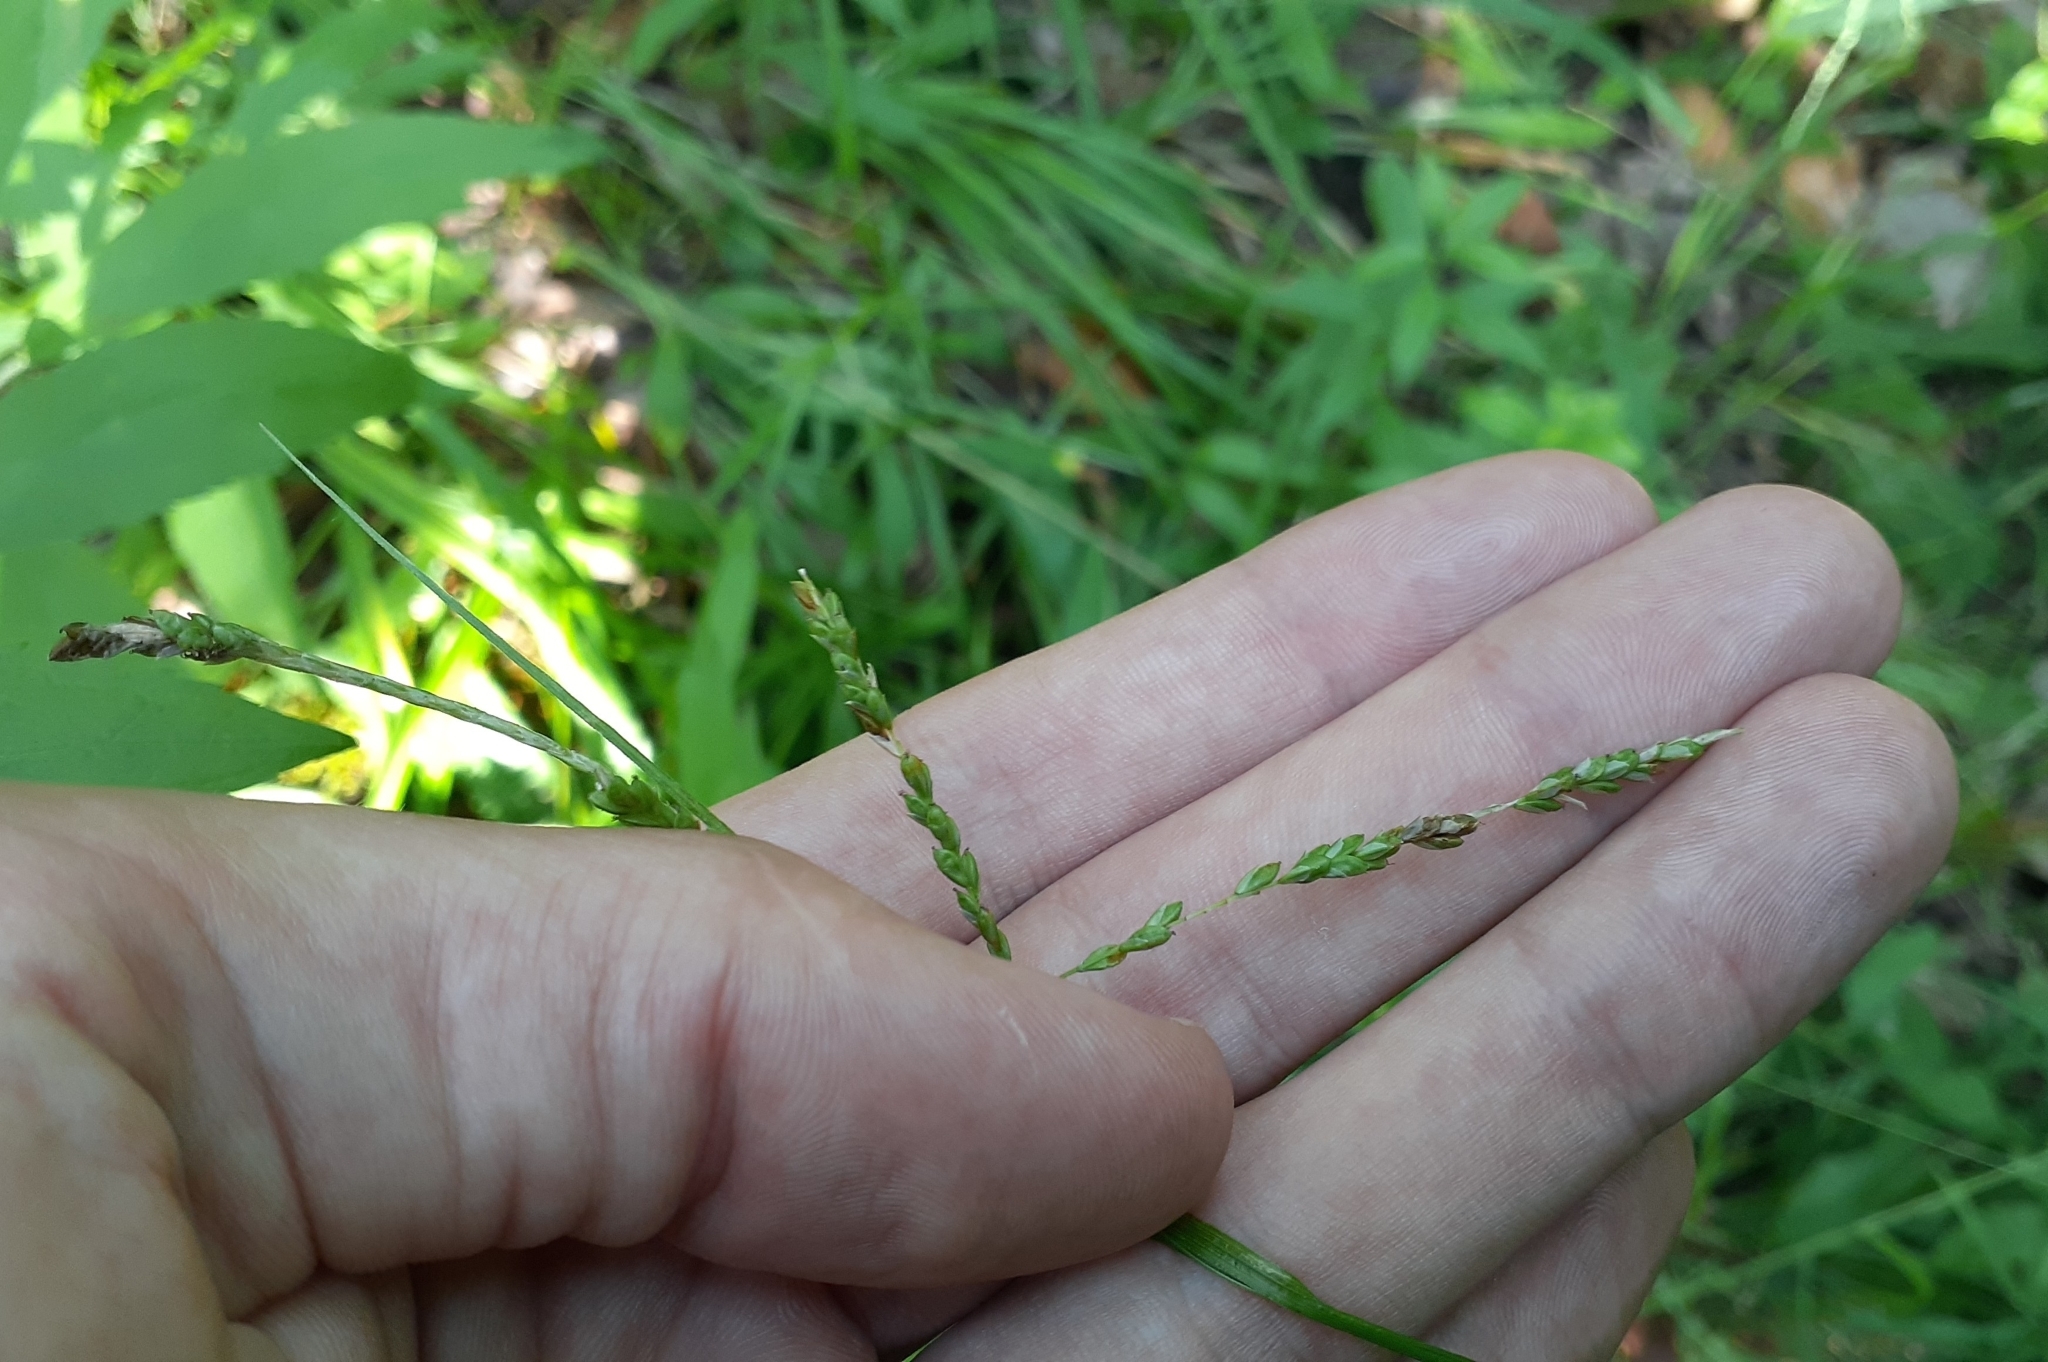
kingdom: Plantae
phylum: Tracheophyta
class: Liliopsida
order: Poales
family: Cyperaceae
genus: Carex
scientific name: Carex gracillima
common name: Graceful sedge
